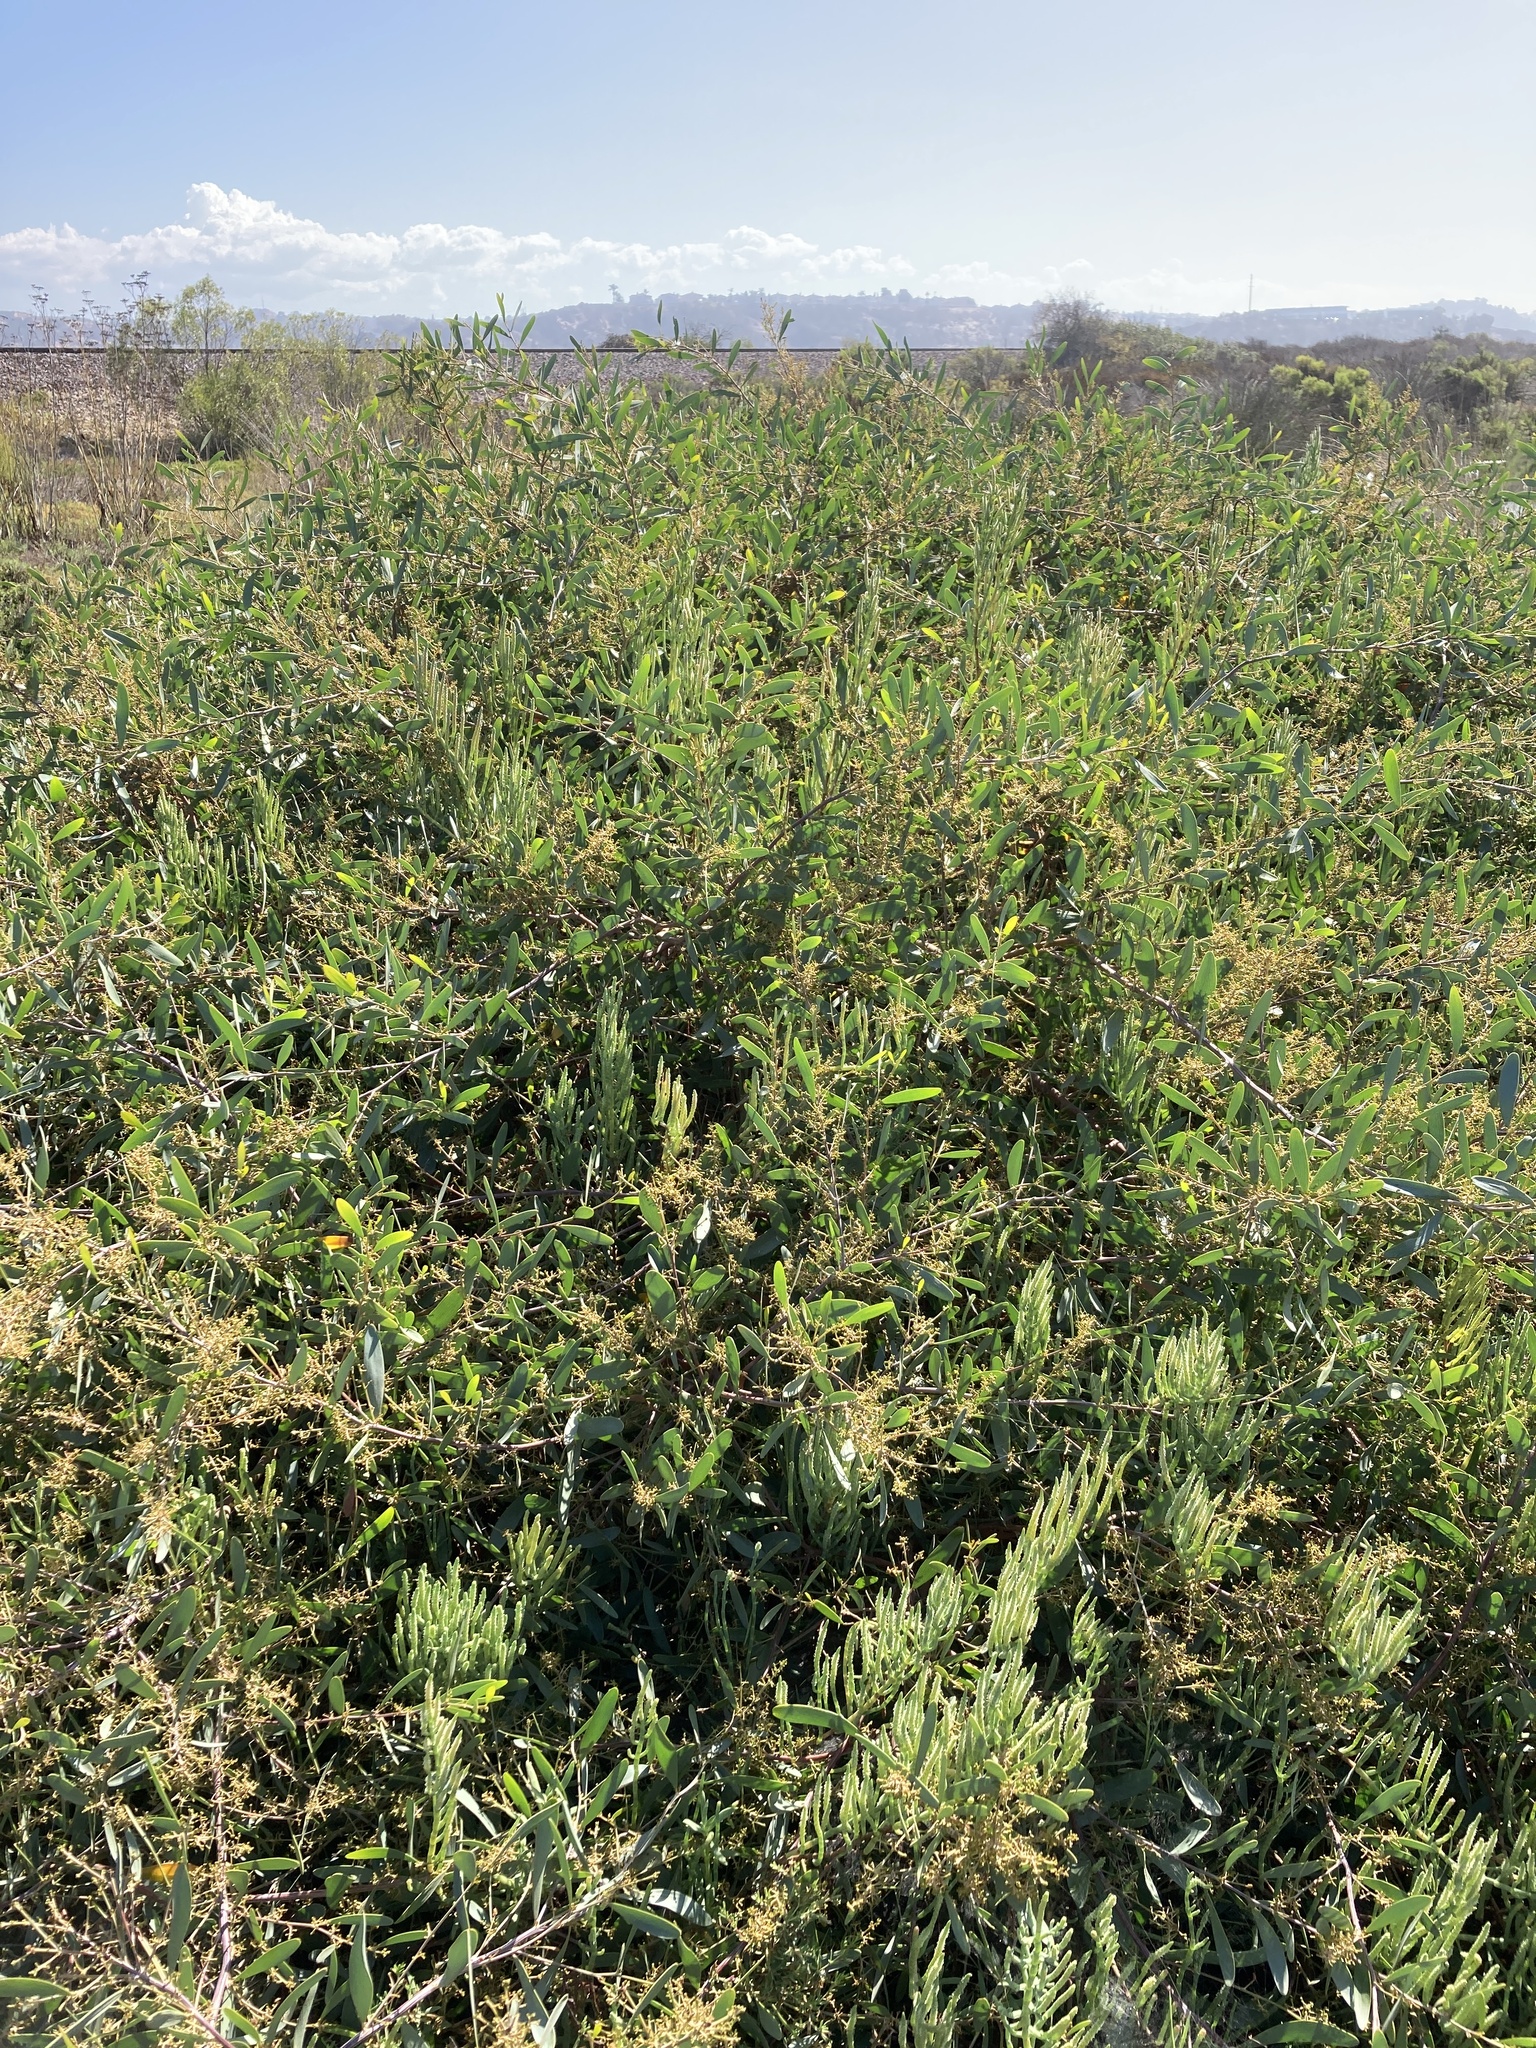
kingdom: Plantae
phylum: Tracheophyta
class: Magnoliopsida
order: Fabales
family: Fabaceae
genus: Acacia
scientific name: Acacia redolens
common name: Bank catclaw
